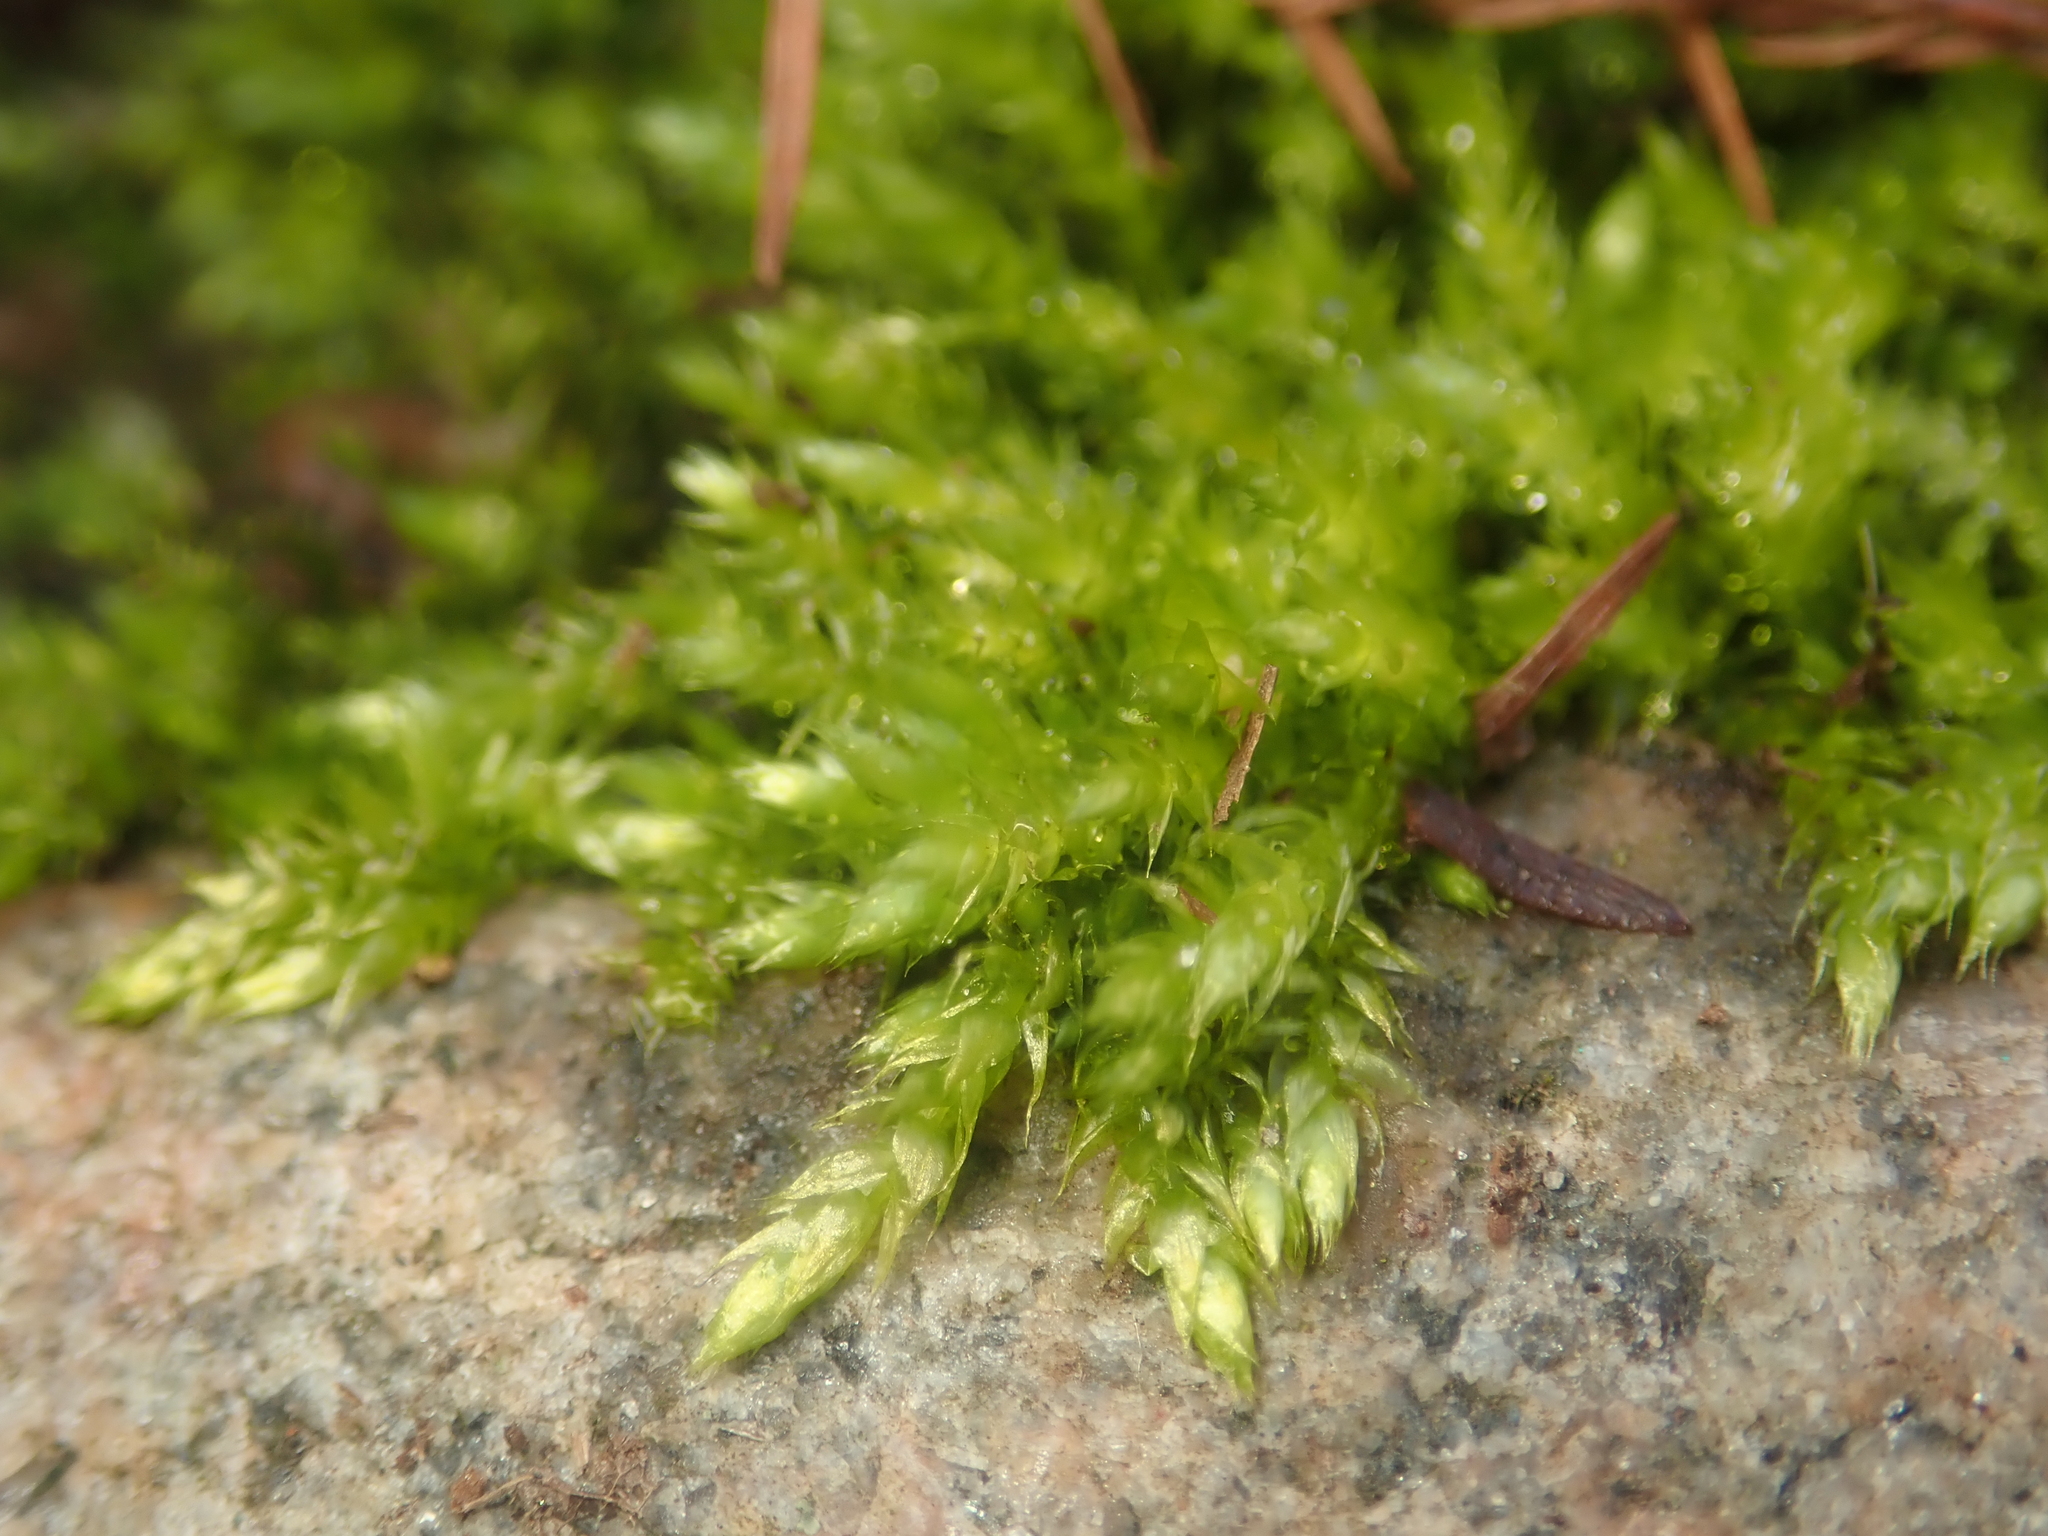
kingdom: Plantae
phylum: Bryophyta
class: Bryopsida
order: Hypnales
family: Brachytheciaceae
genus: Brachythecium
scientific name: Brachythecium rutabulum
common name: Rough-stalked feather-moss
